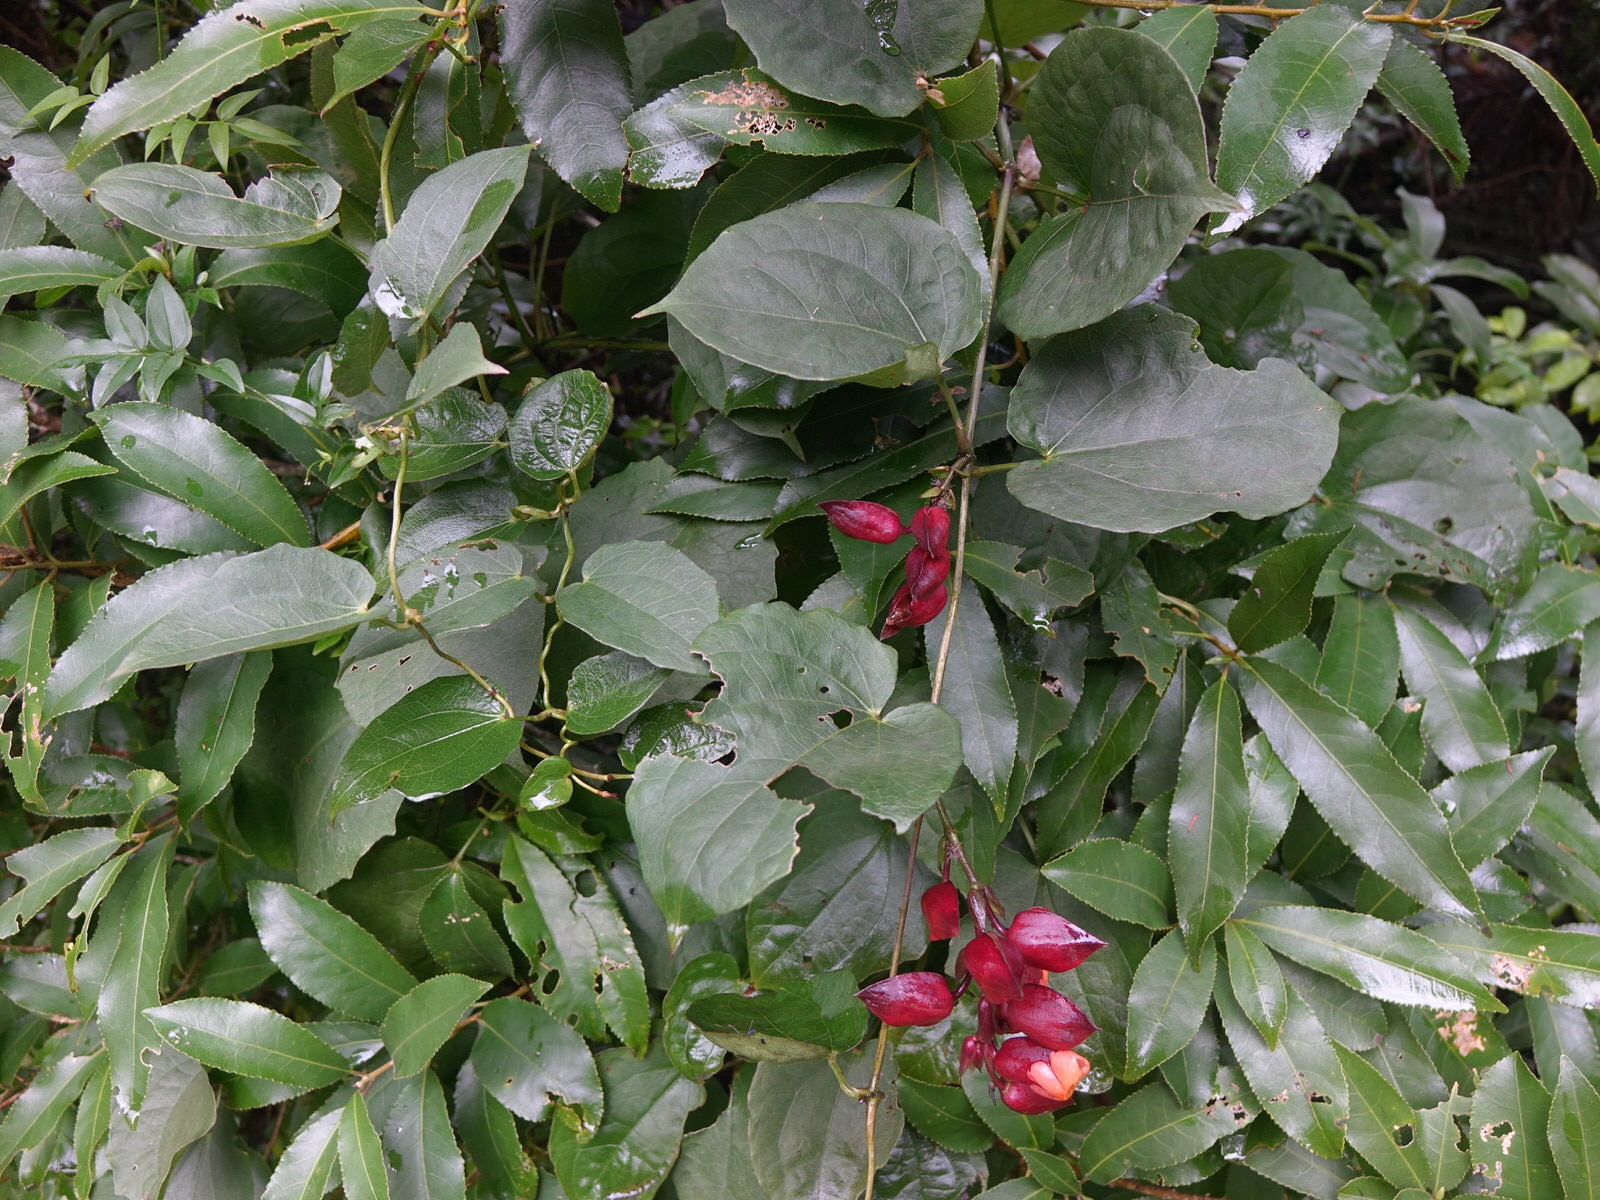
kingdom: Plantae
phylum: Tracheophyta
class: Magnoliopsida
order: Lamiales
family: Acanthaceae
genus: Thunbergia
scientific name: Thunbergia coccinea
